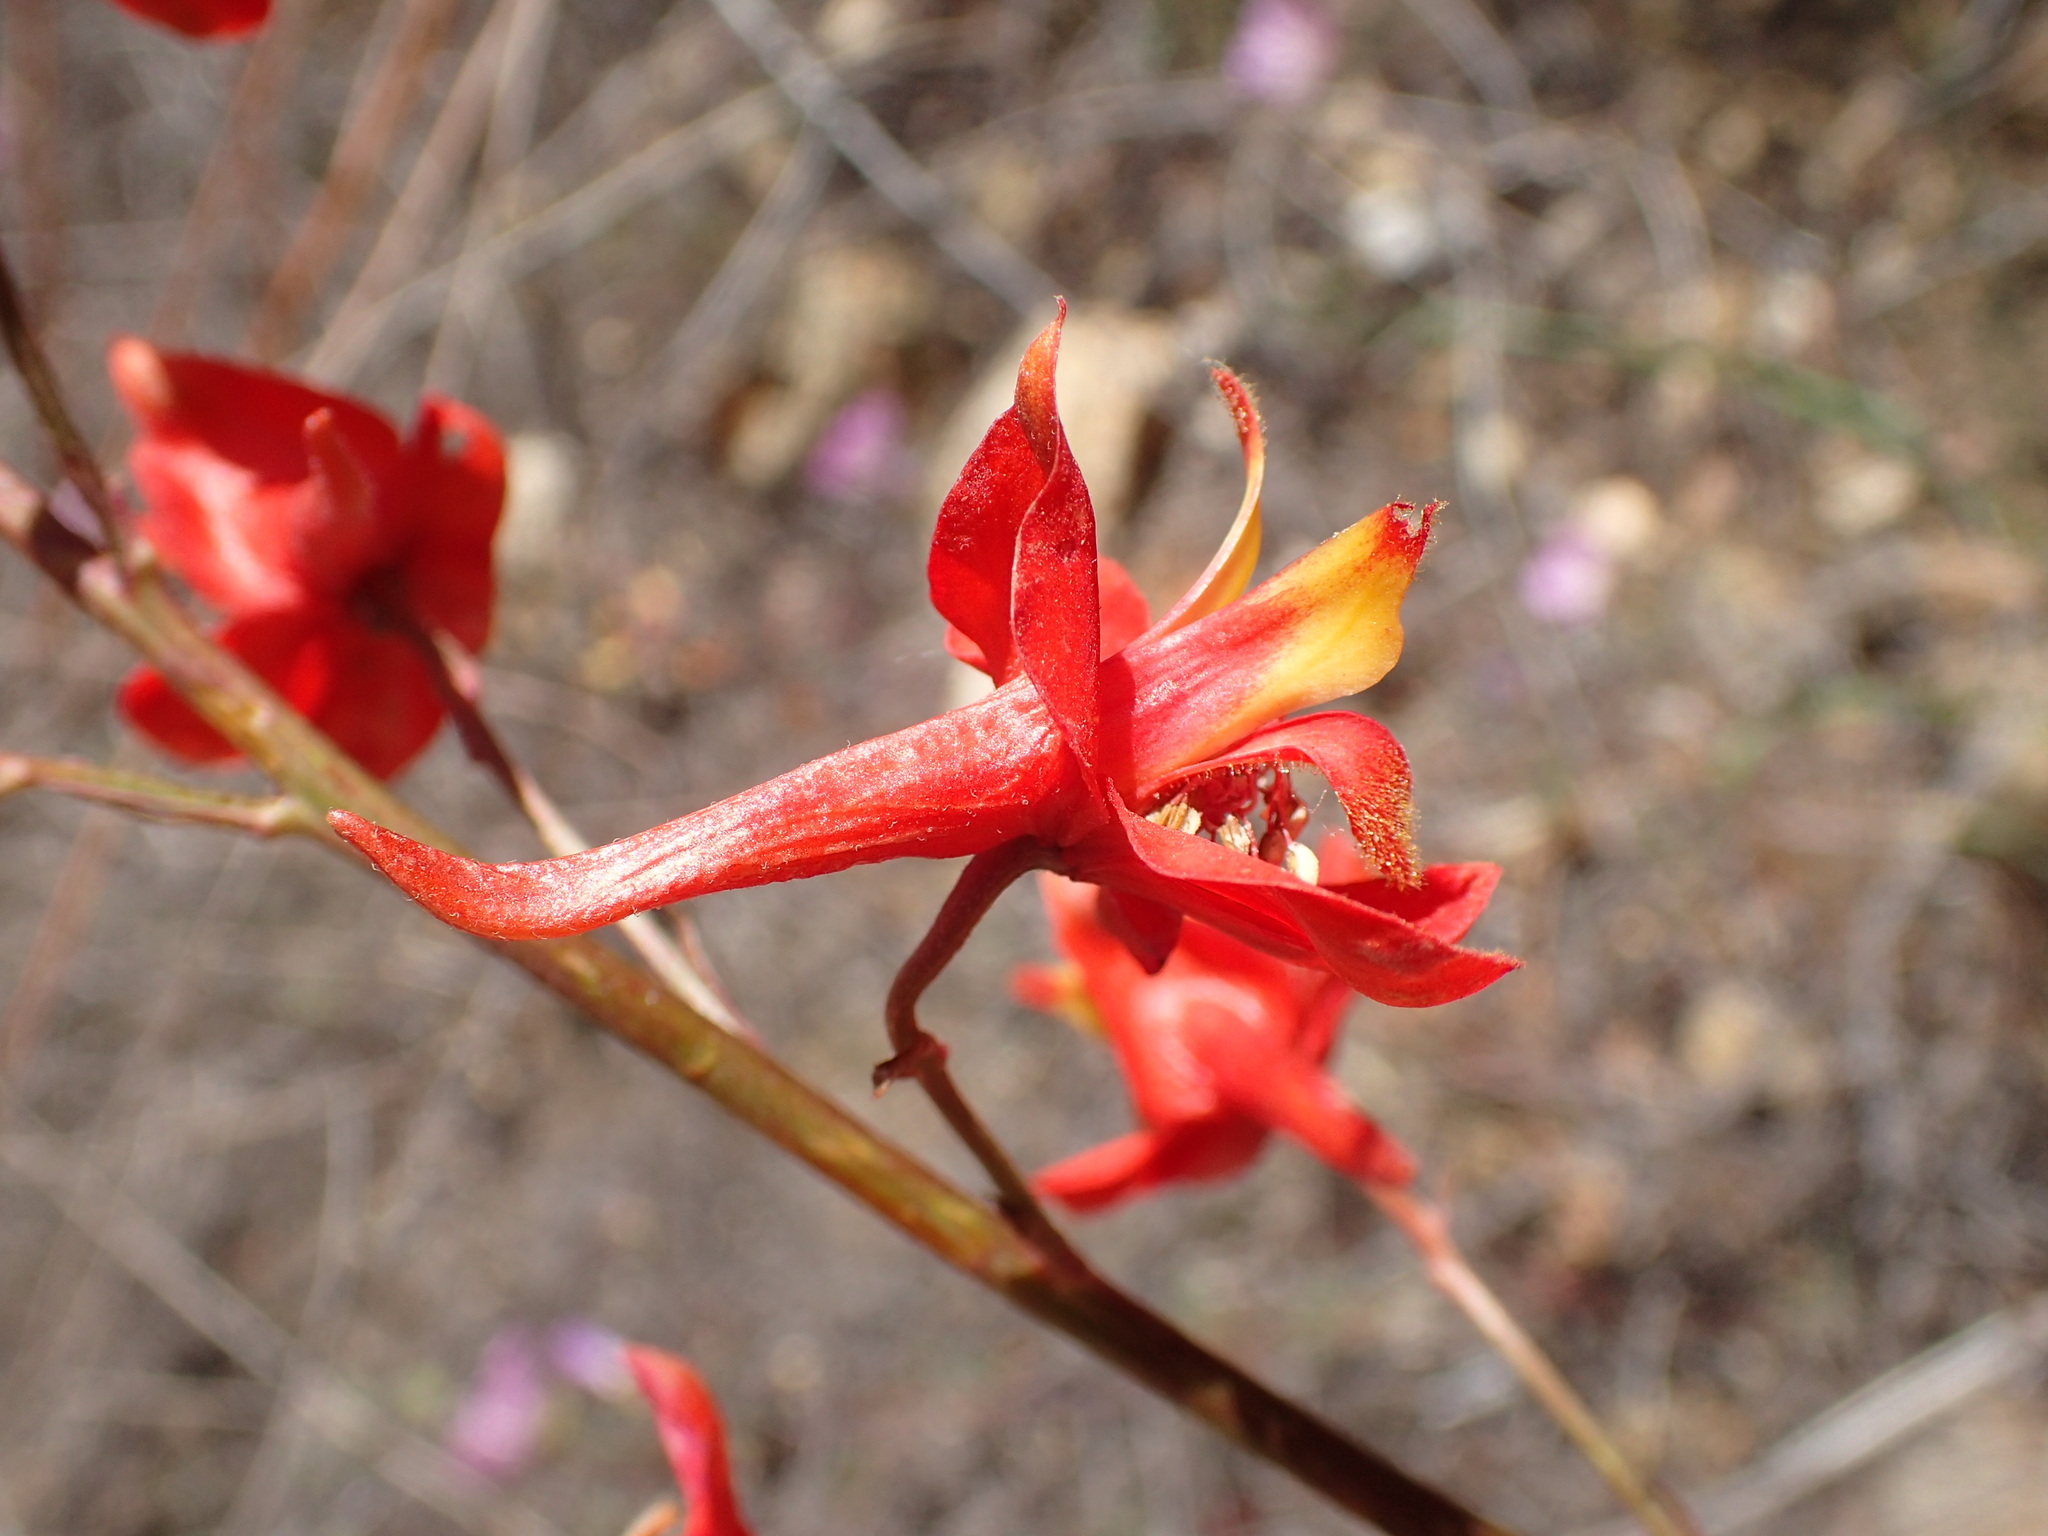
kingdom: Plantae
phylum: Tracheophyta
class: Magnoliopsida
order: Ranunculales
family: Ranunculaceae
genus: Delphinium
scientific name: Delphinium cardinale
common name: Scarlet larkspur
